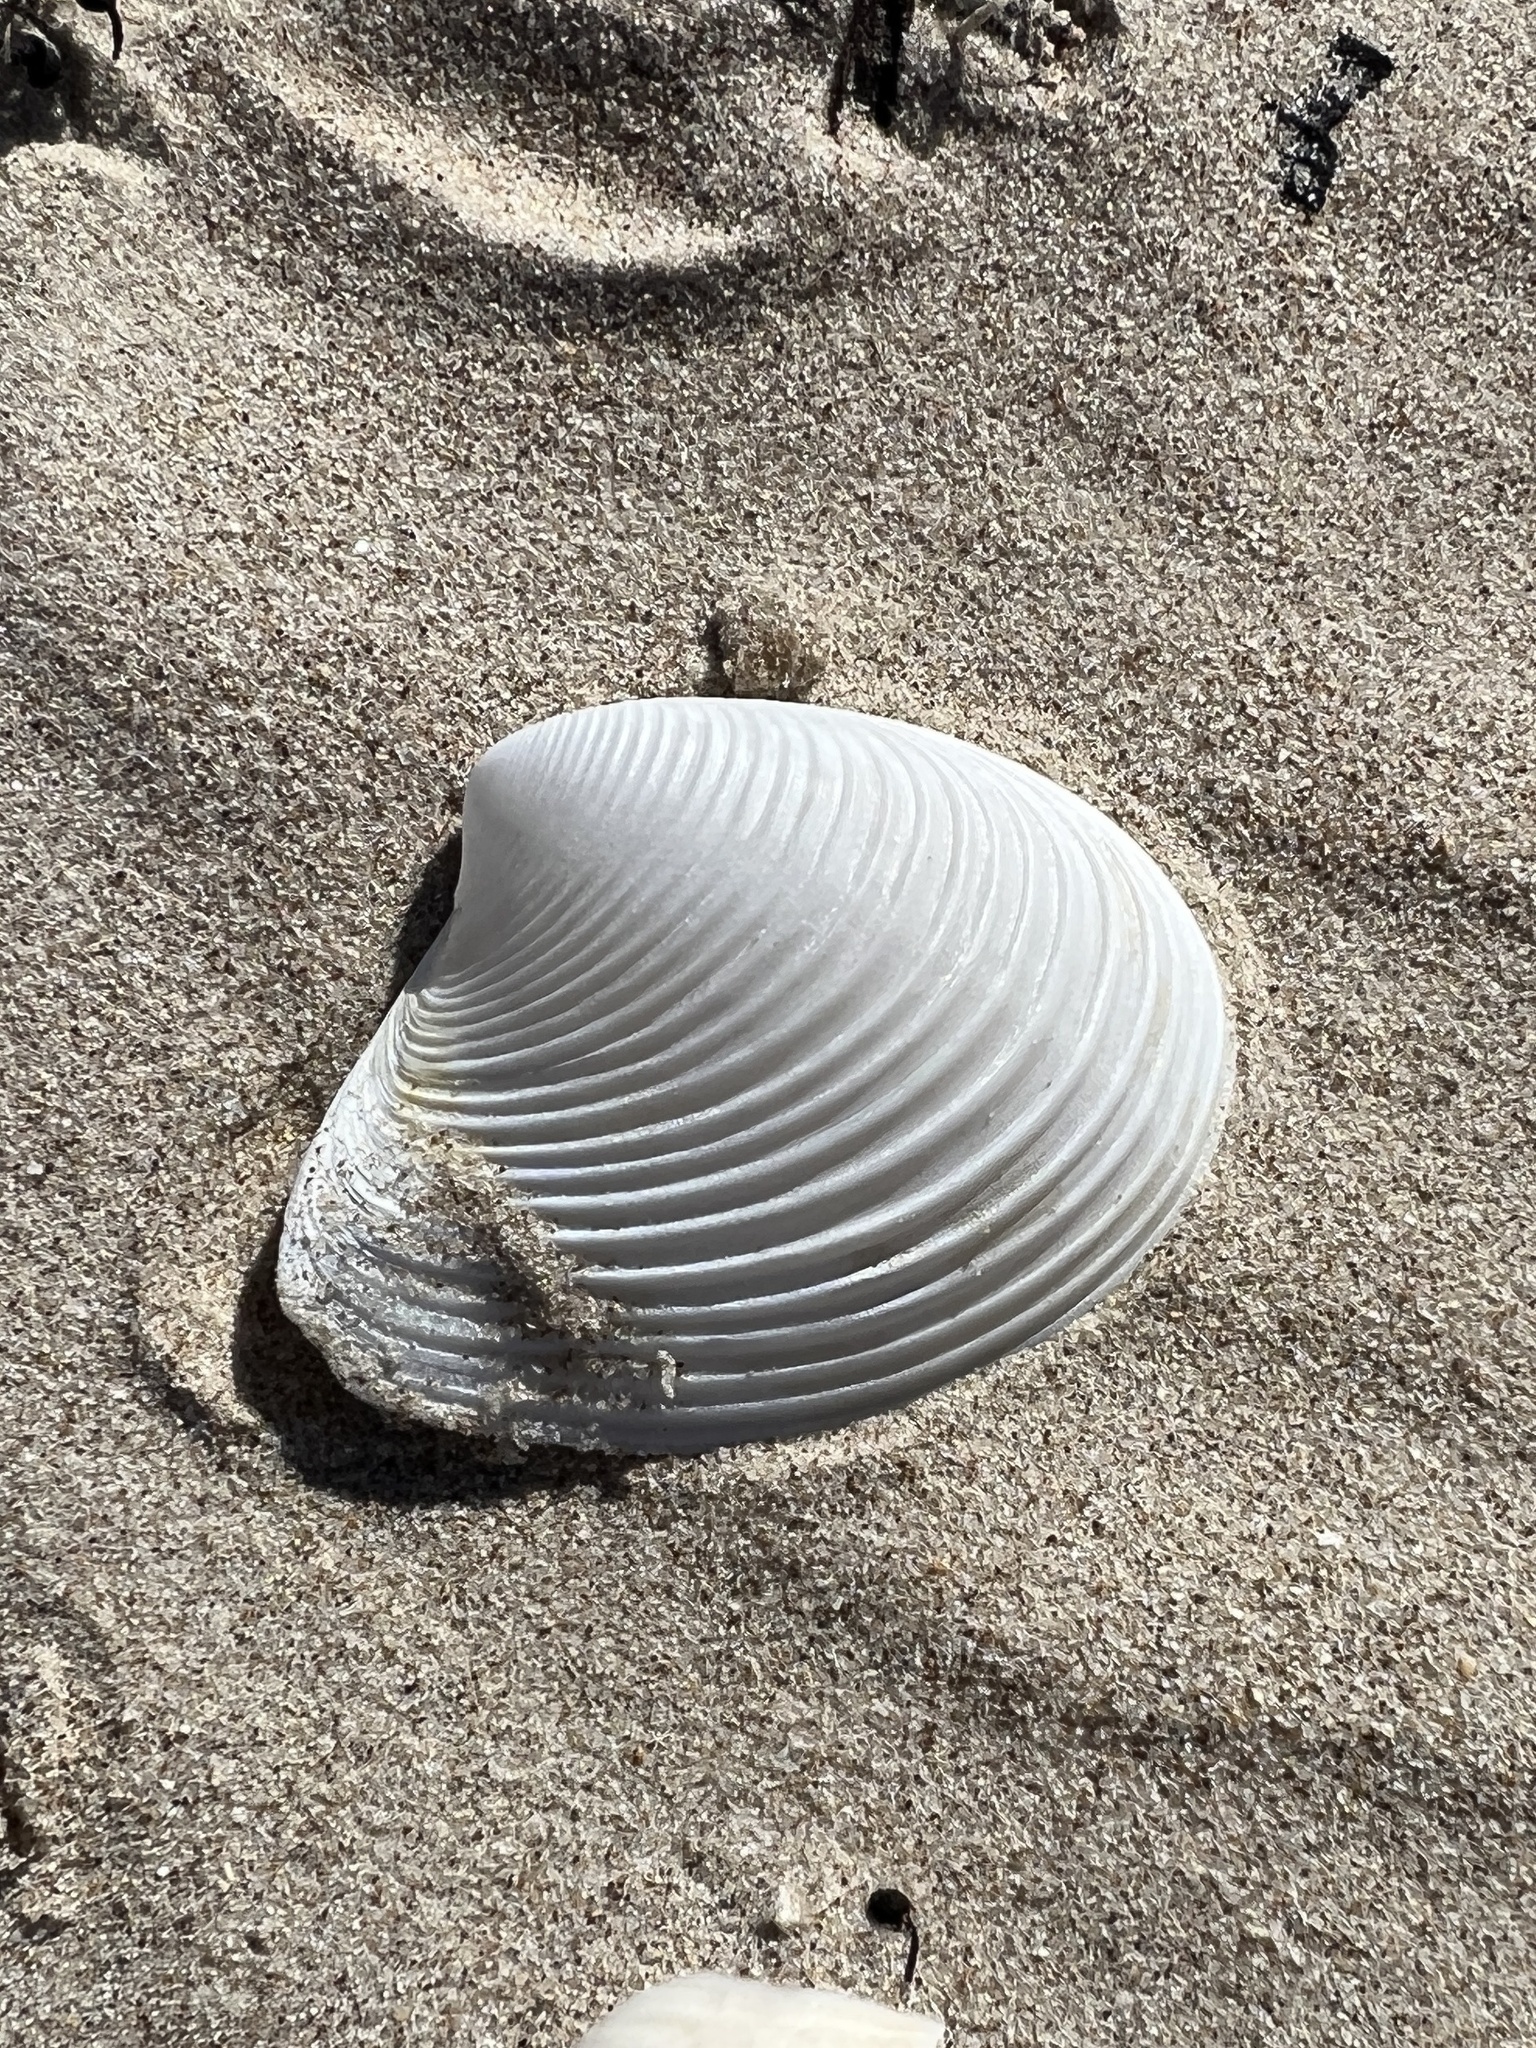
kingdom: Animalia
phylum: Mollusca
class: Bivalvia
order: Venerida
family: Anatinellidae
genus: Raeta
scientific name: Raeta plicatella
